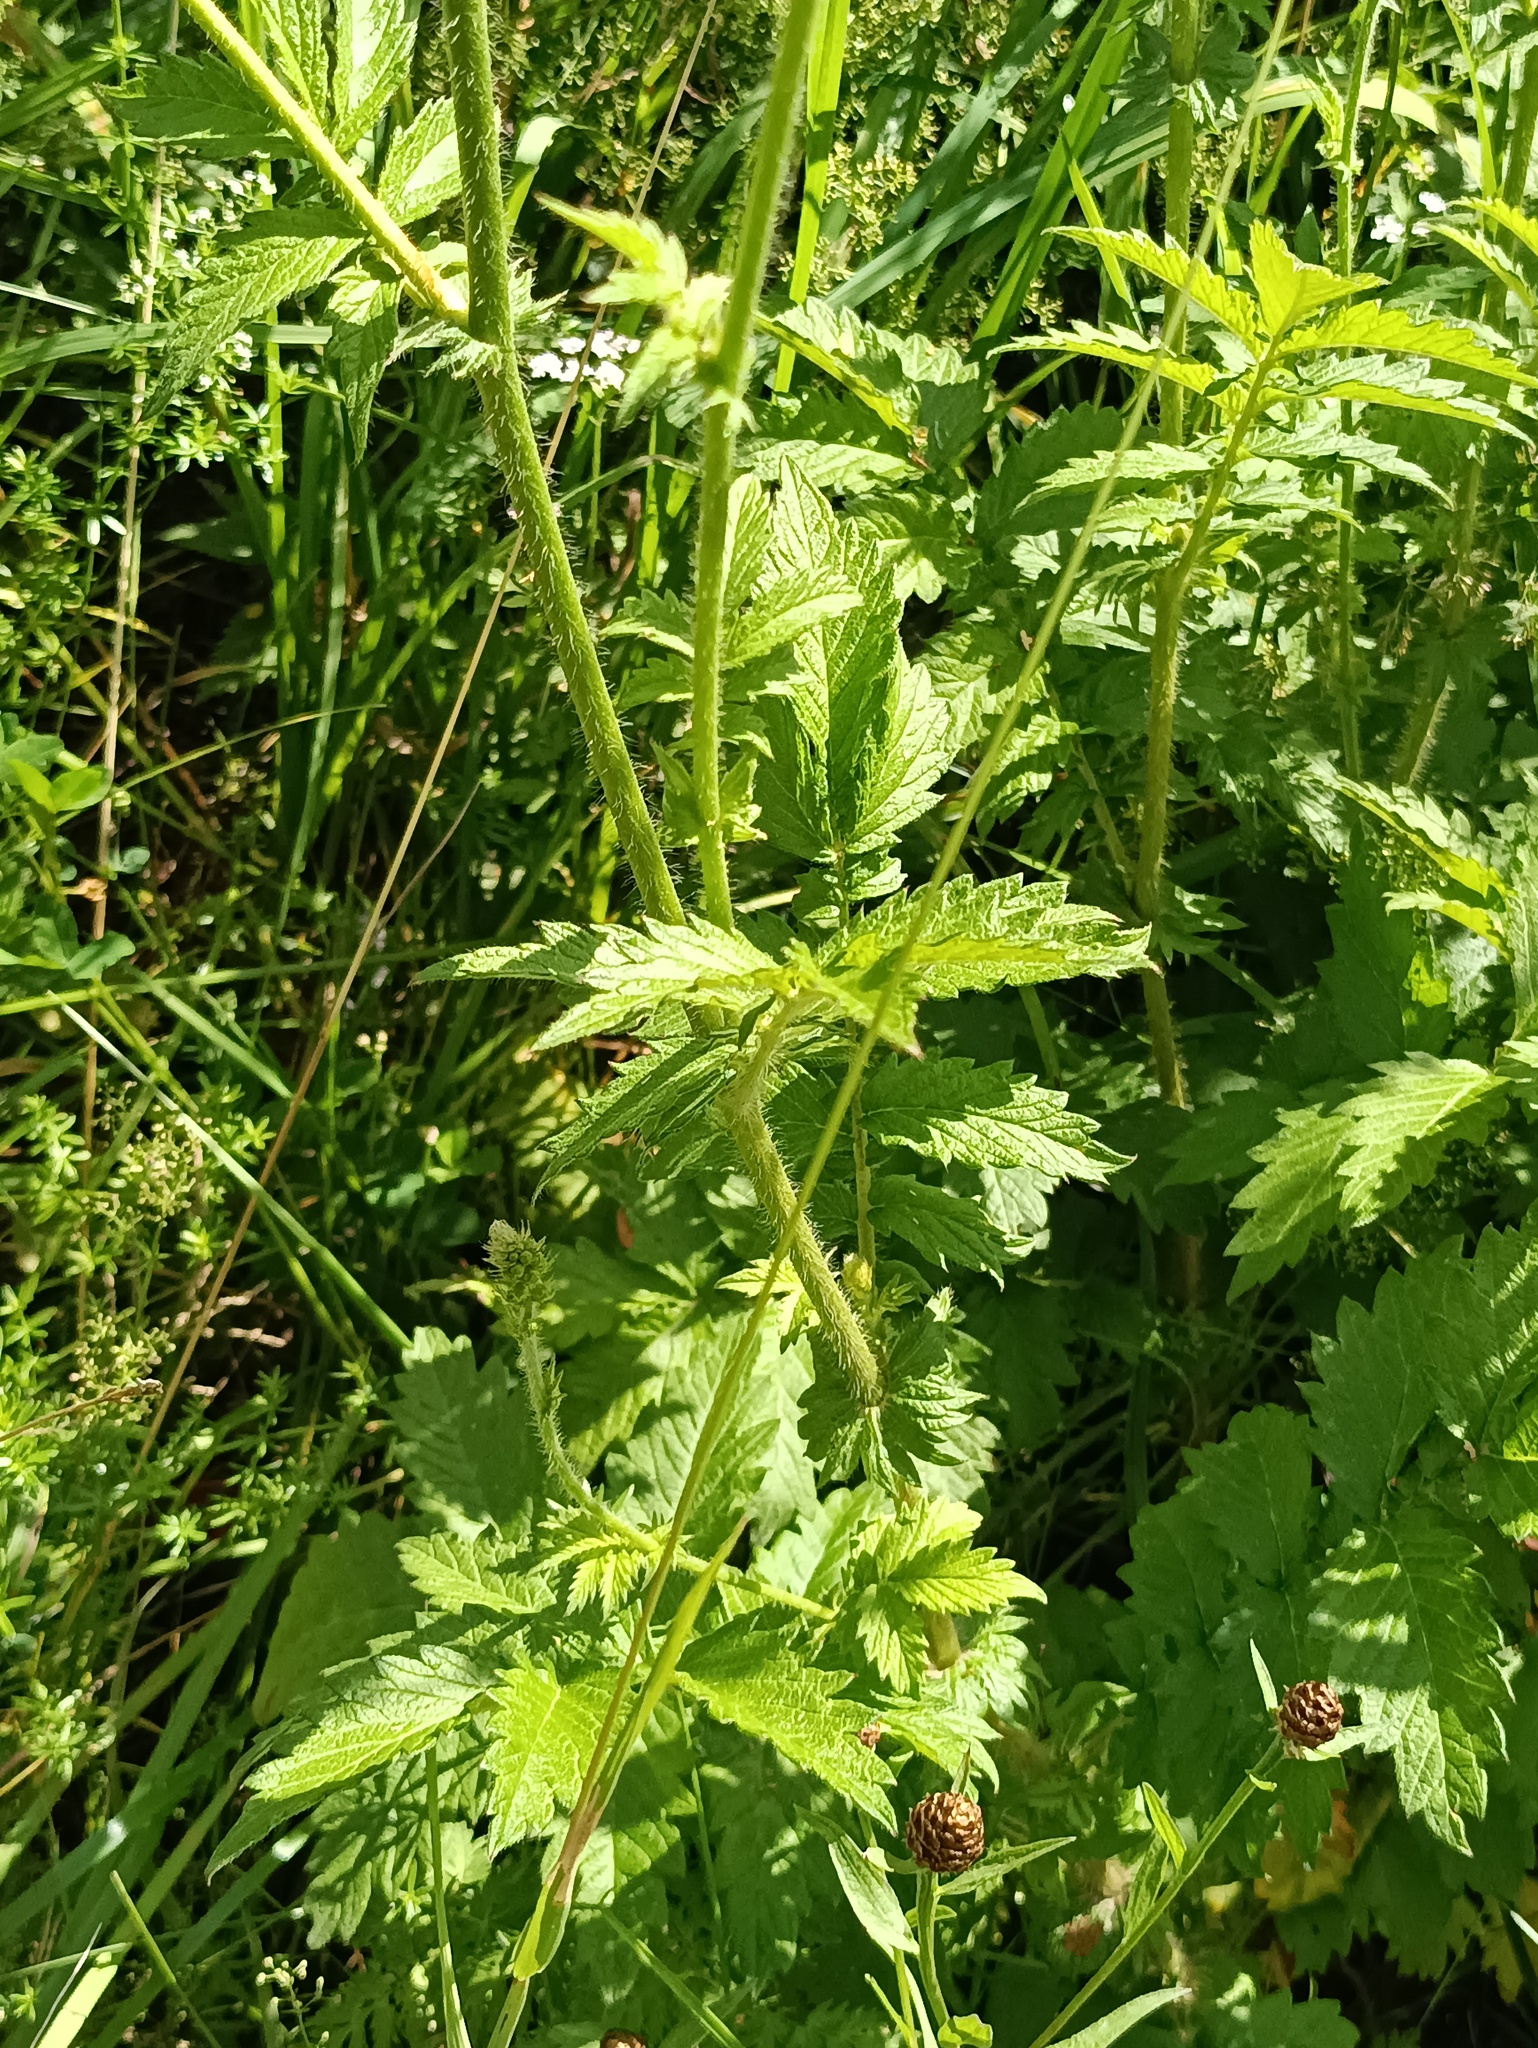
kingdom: Plantae
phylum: Tracheophyta
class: Magnoliopsida
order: Rosales
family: Rosaceae
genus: Agrimonia
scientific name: Agrimonia eupatoria
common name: Agrimony
